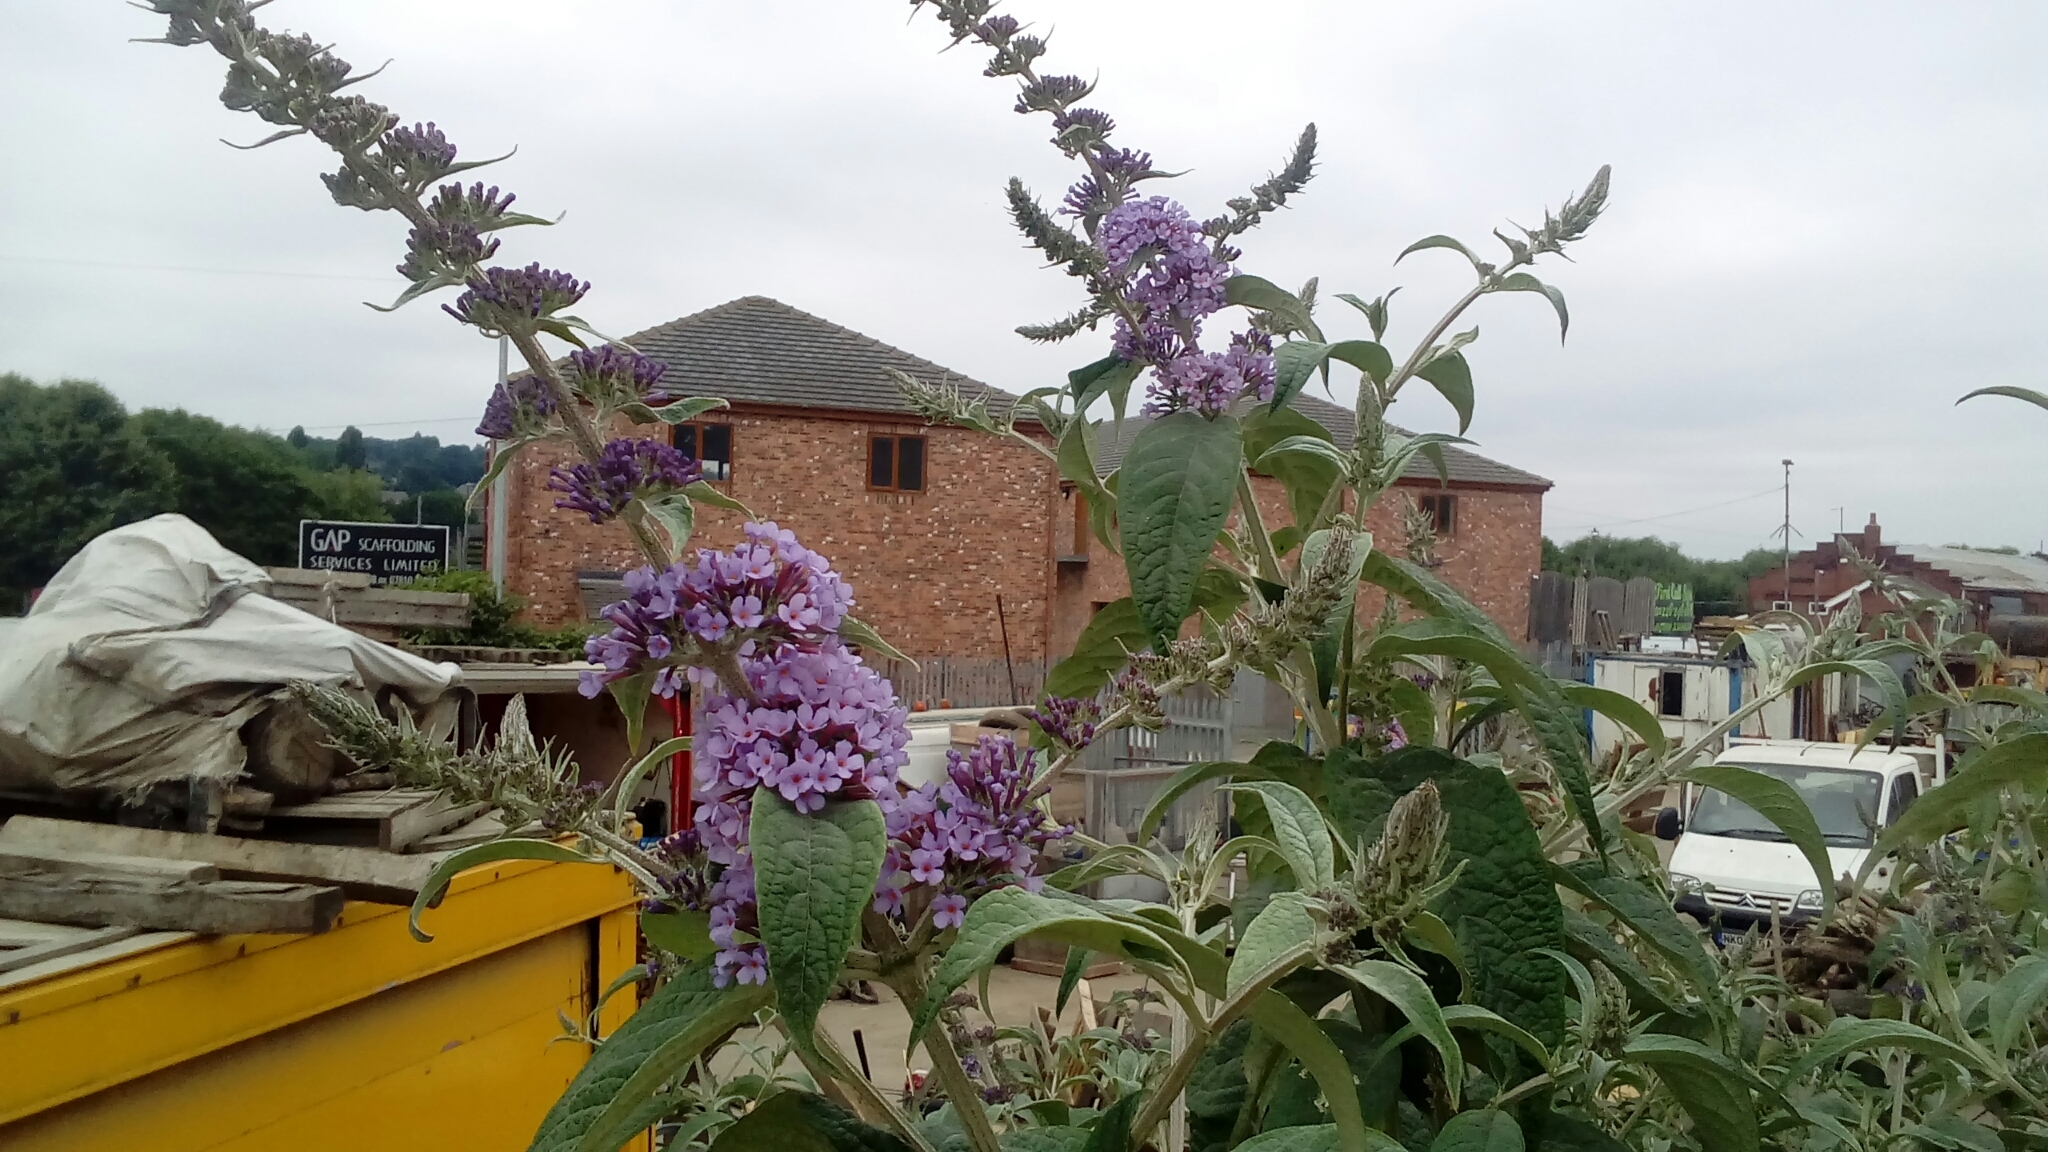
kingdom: Plantae
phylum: Tracheophyta
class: Magnoliopsida
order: Lamiales
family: Scrophulariaceae
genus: Buddleja
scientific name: Buddleja davidii
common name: Butterfly-bush
